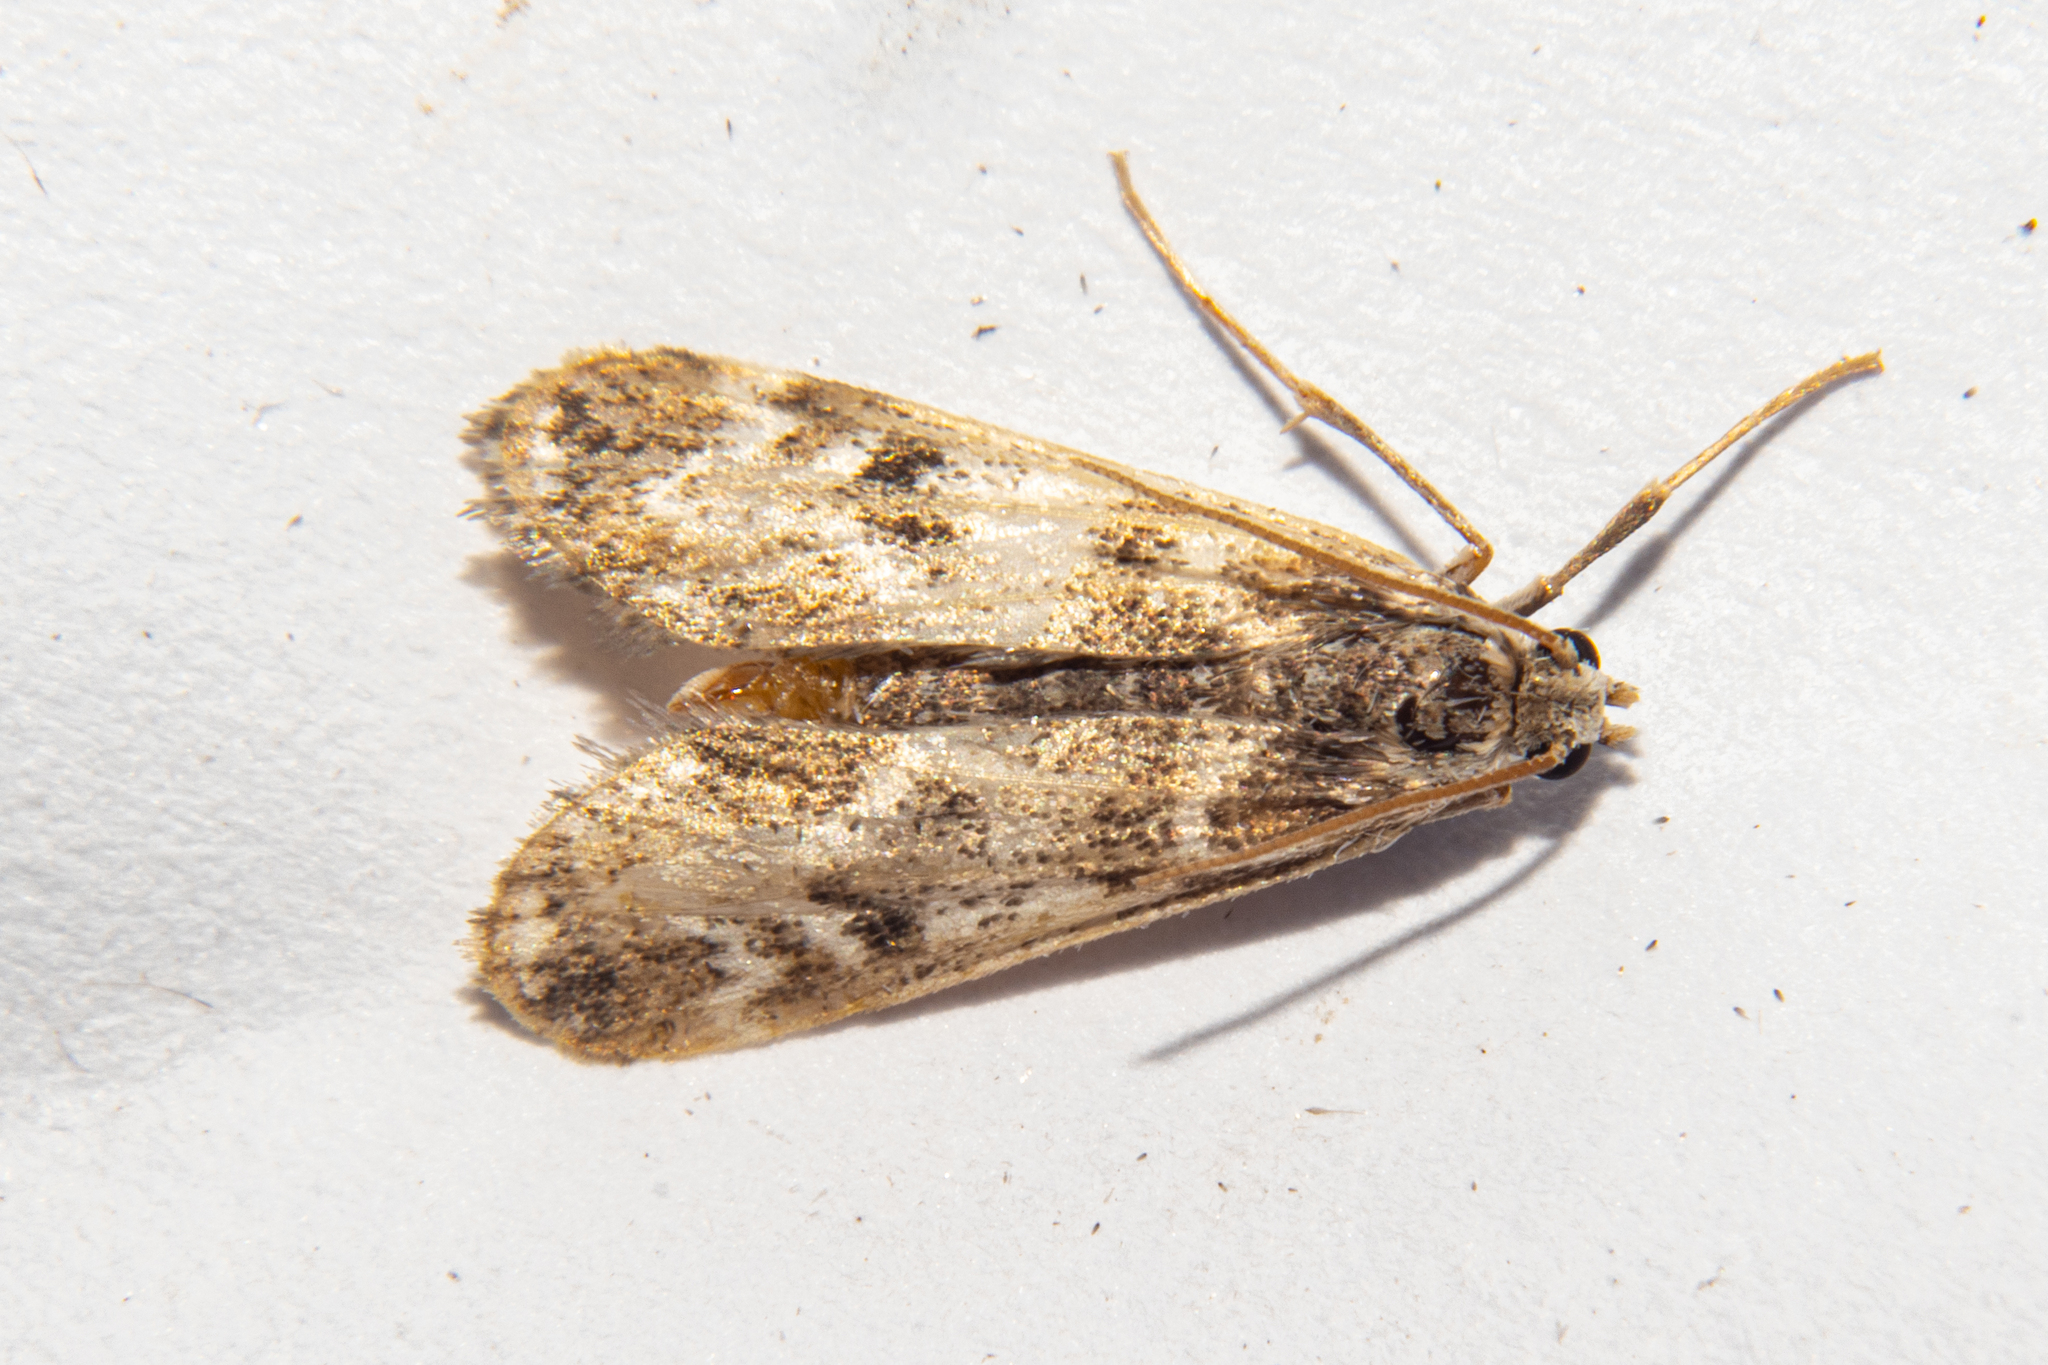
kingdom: Animalia
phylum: Arthropoda
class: Insecta
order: Lepidoptera
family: Crambidae
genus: Hygraula
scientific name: Hygraula nitens
